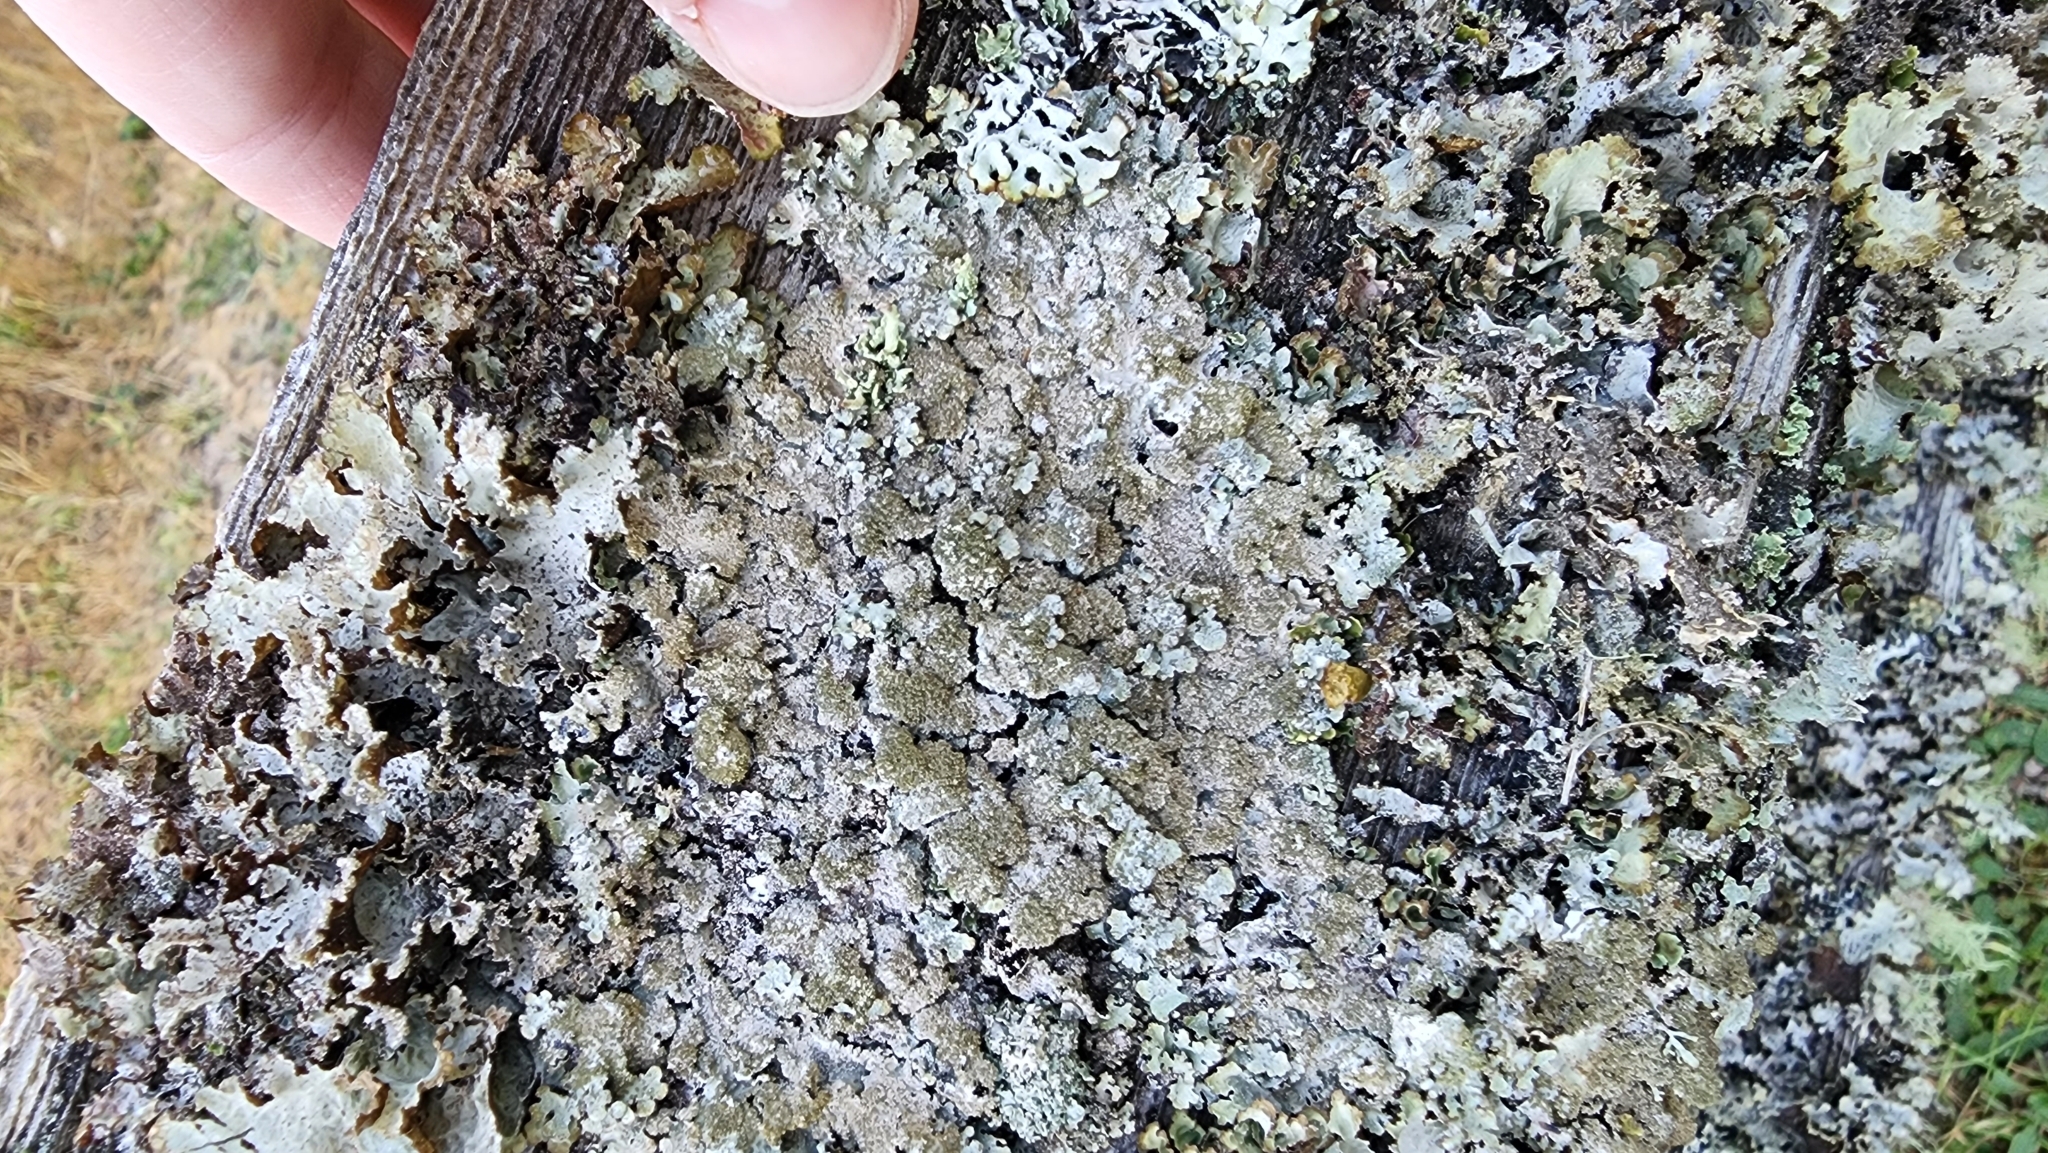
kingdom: Fungi
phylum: Ascomycota
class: Lecanoromycetes
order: Lecanorales
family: Parmeliaceae
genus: Imshaugia
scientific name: Imshaugia aleurites
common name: Salted starburst lichen
